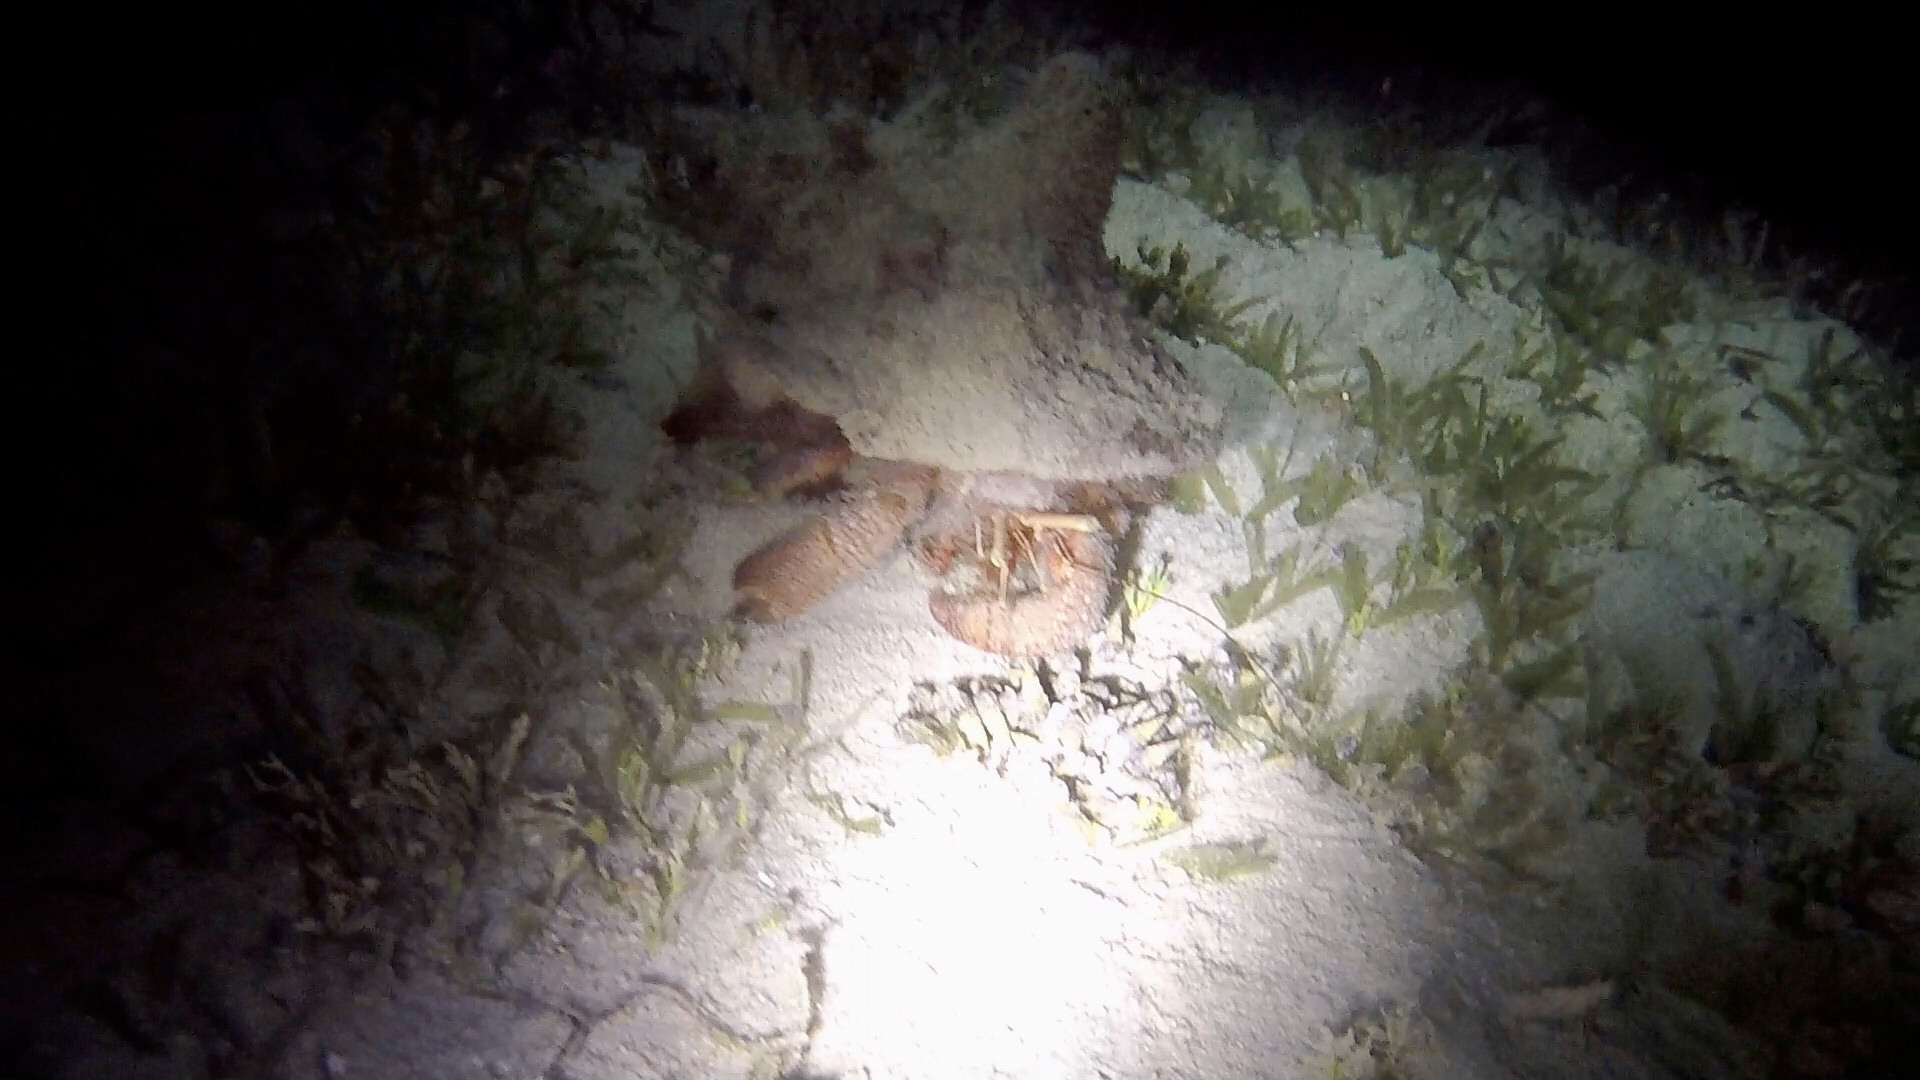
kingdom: Animalia
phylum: Arthropoda
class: Malacostraca
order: Decapoda
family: Diogenidae
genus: Petrochirus
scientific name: Petrochirus diogenes
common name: Giant hermit crab
